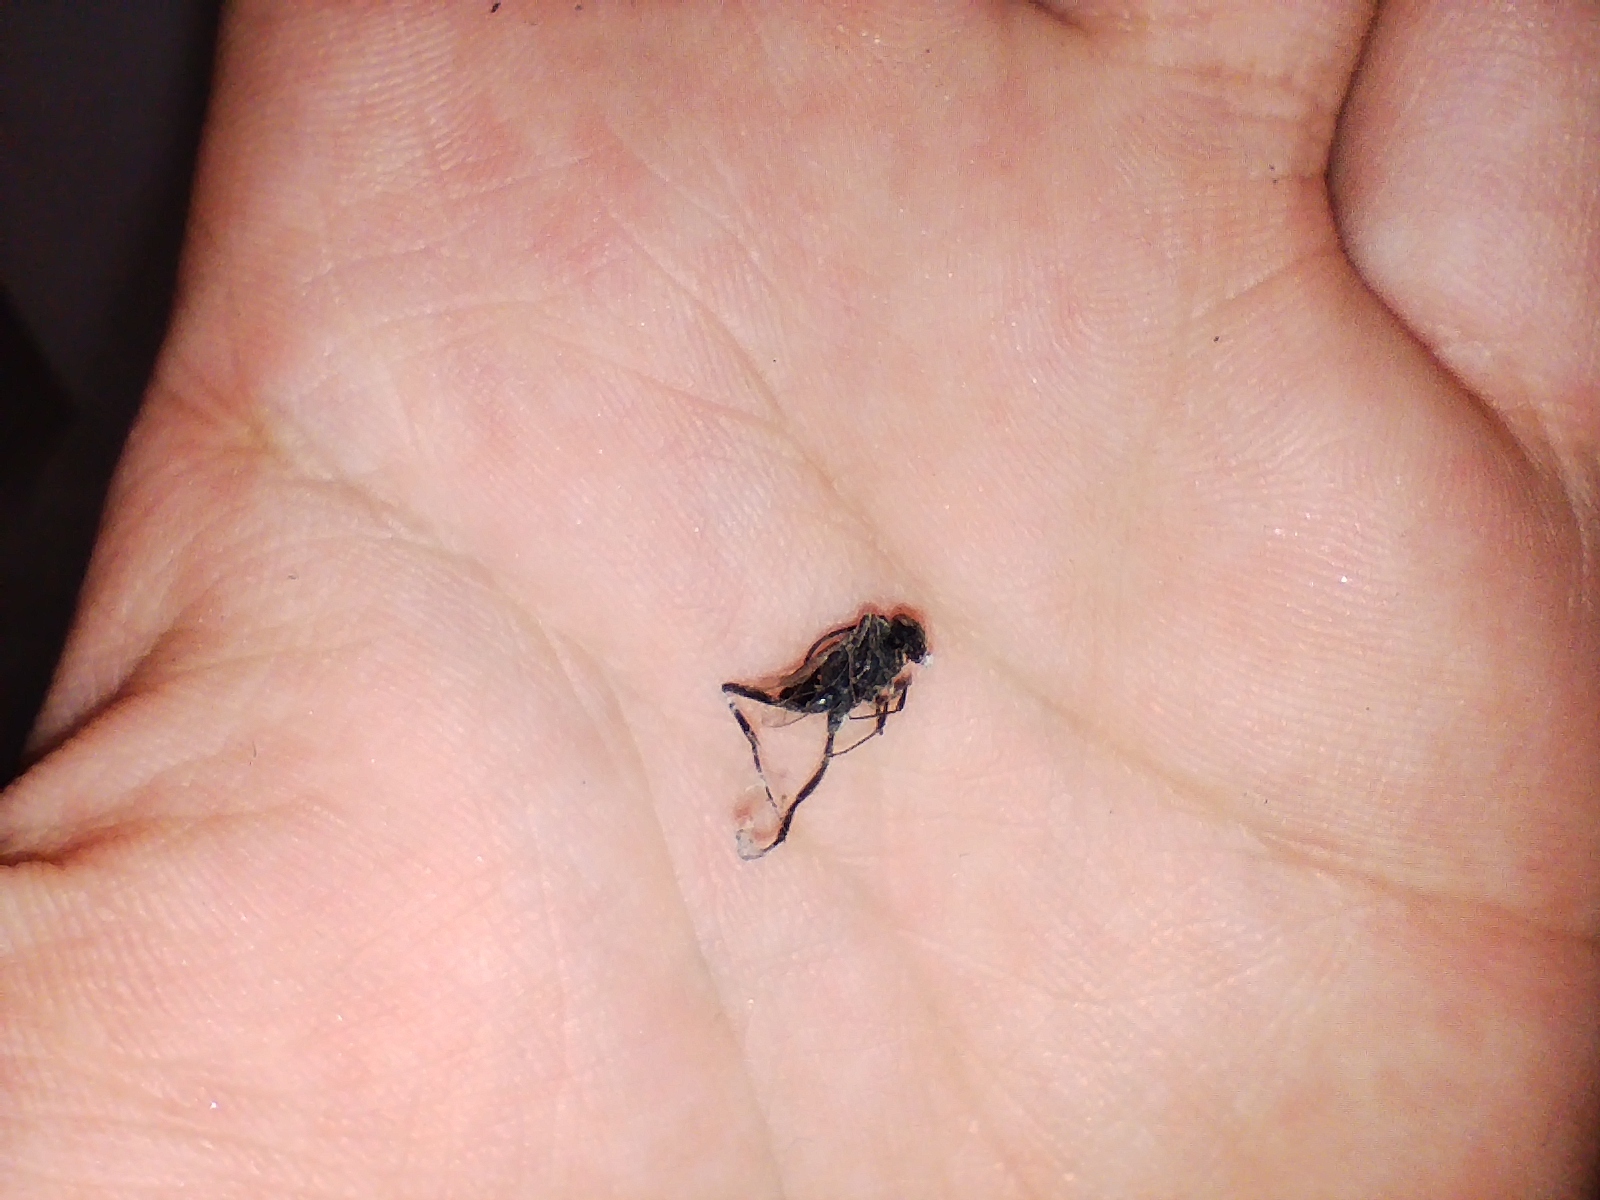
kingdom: Animalia
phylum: Arthropoda
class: Insecta
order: Hymenoptera
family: Evaniidae
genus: Evania
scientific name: Evania appendigaster
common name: Ensign wasp
